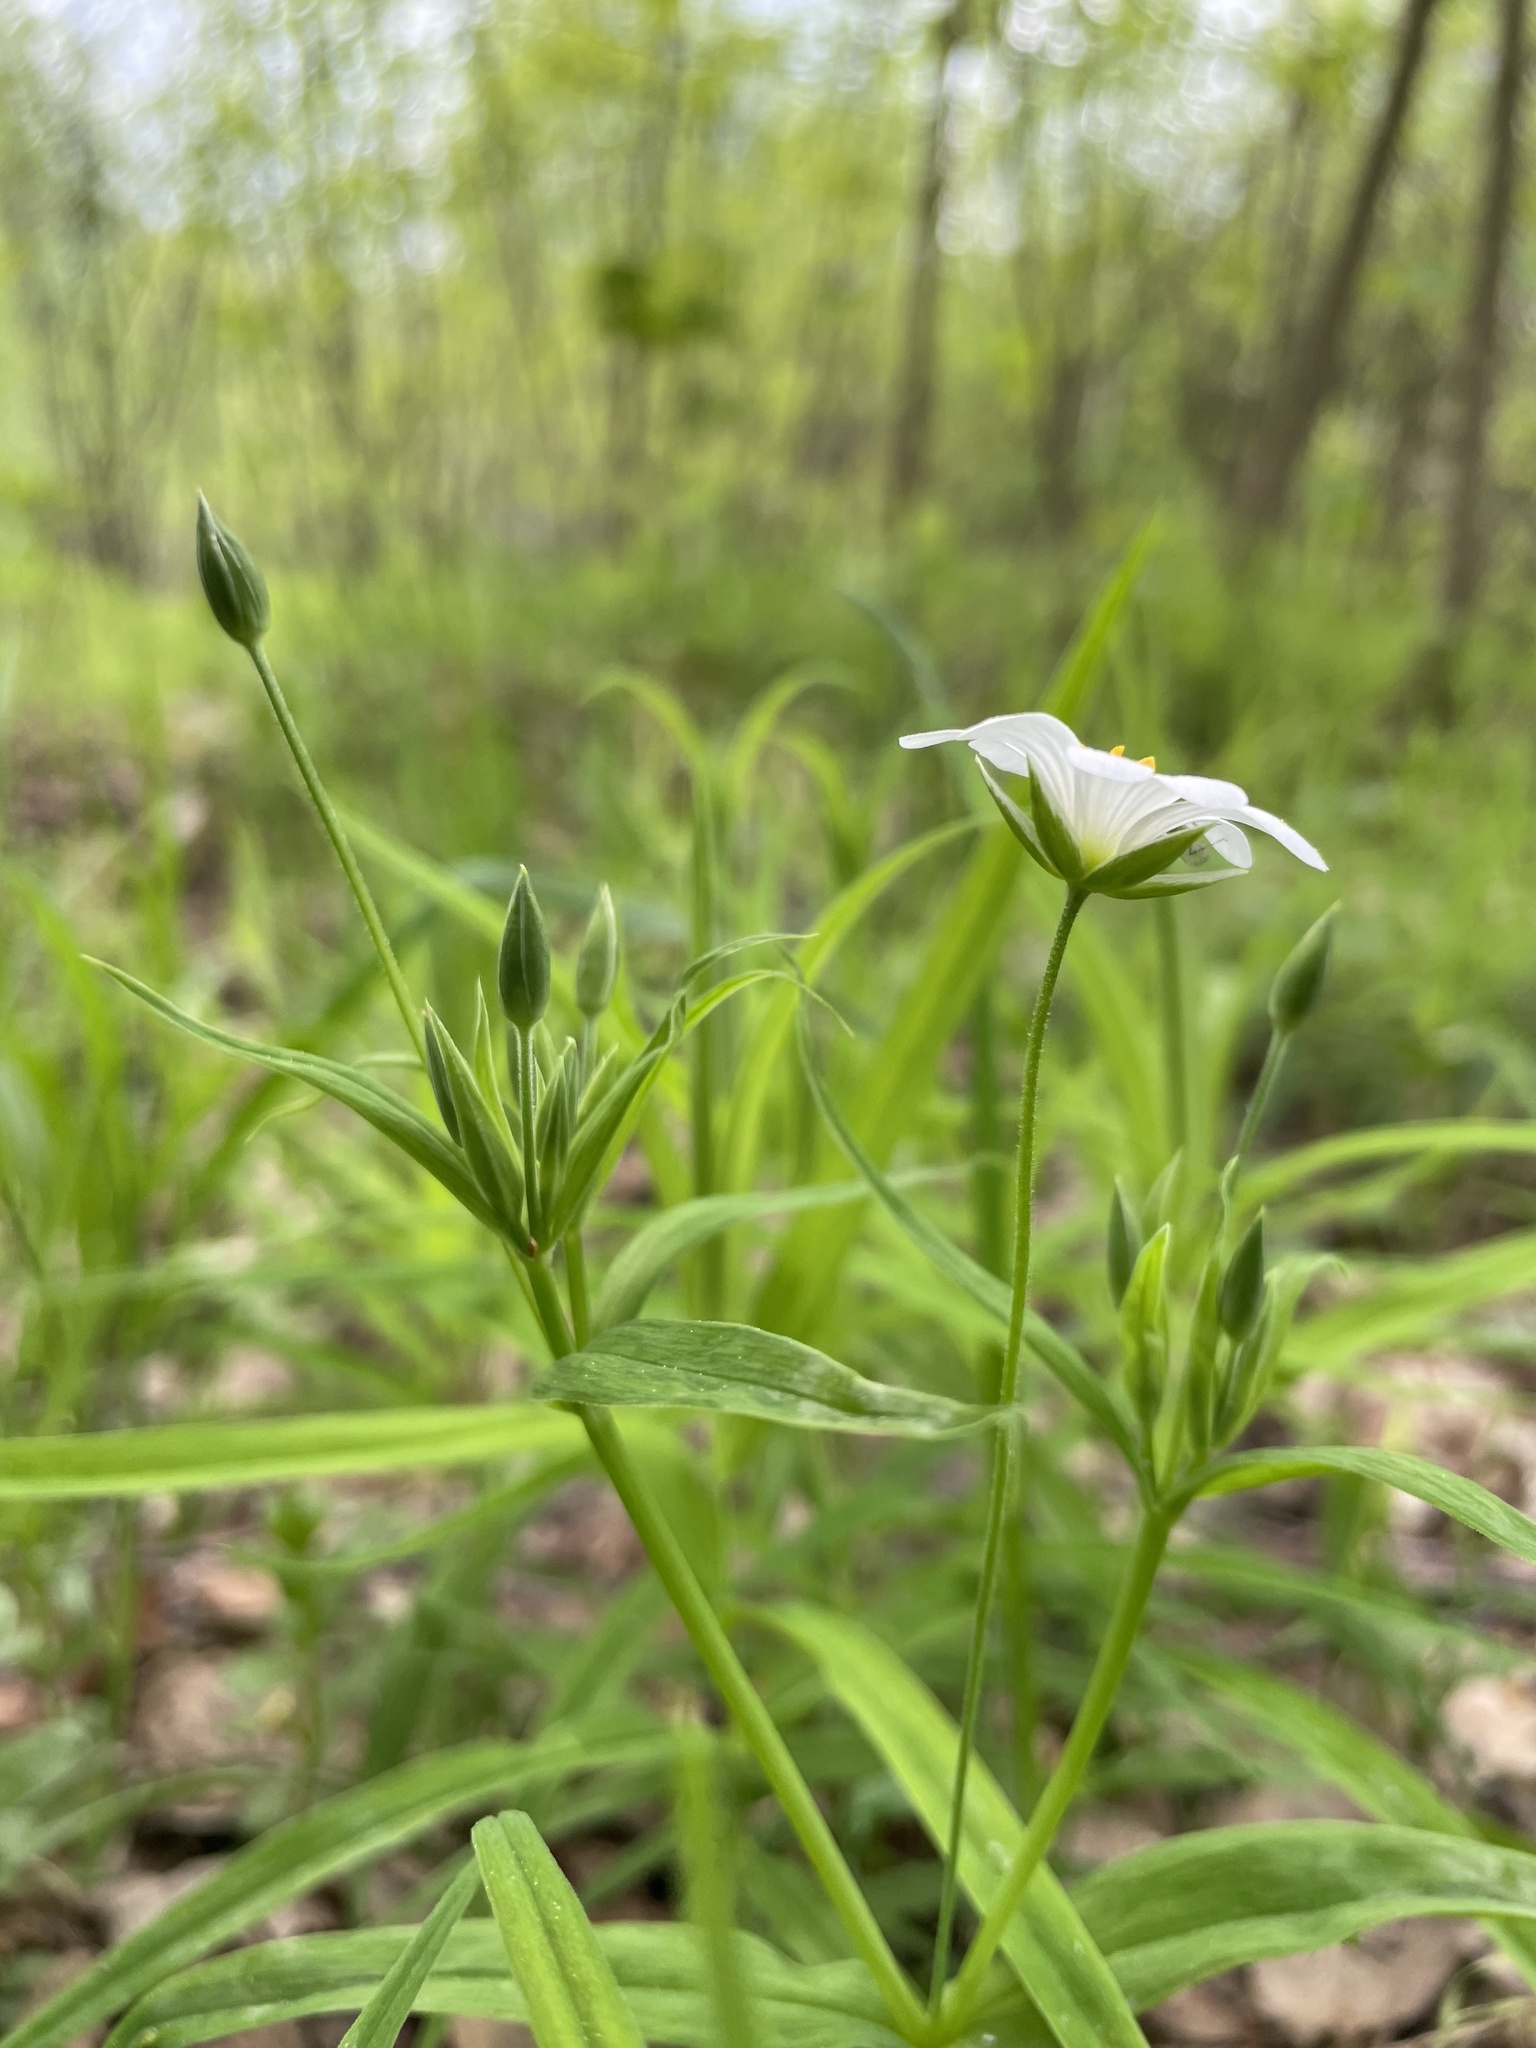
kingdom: Plantae
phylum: Tracheophyta
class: Magnoliopsida
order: Caryophyllales
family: Caryophyllaceae
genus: Rabelera
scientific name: Rabelera holostea
